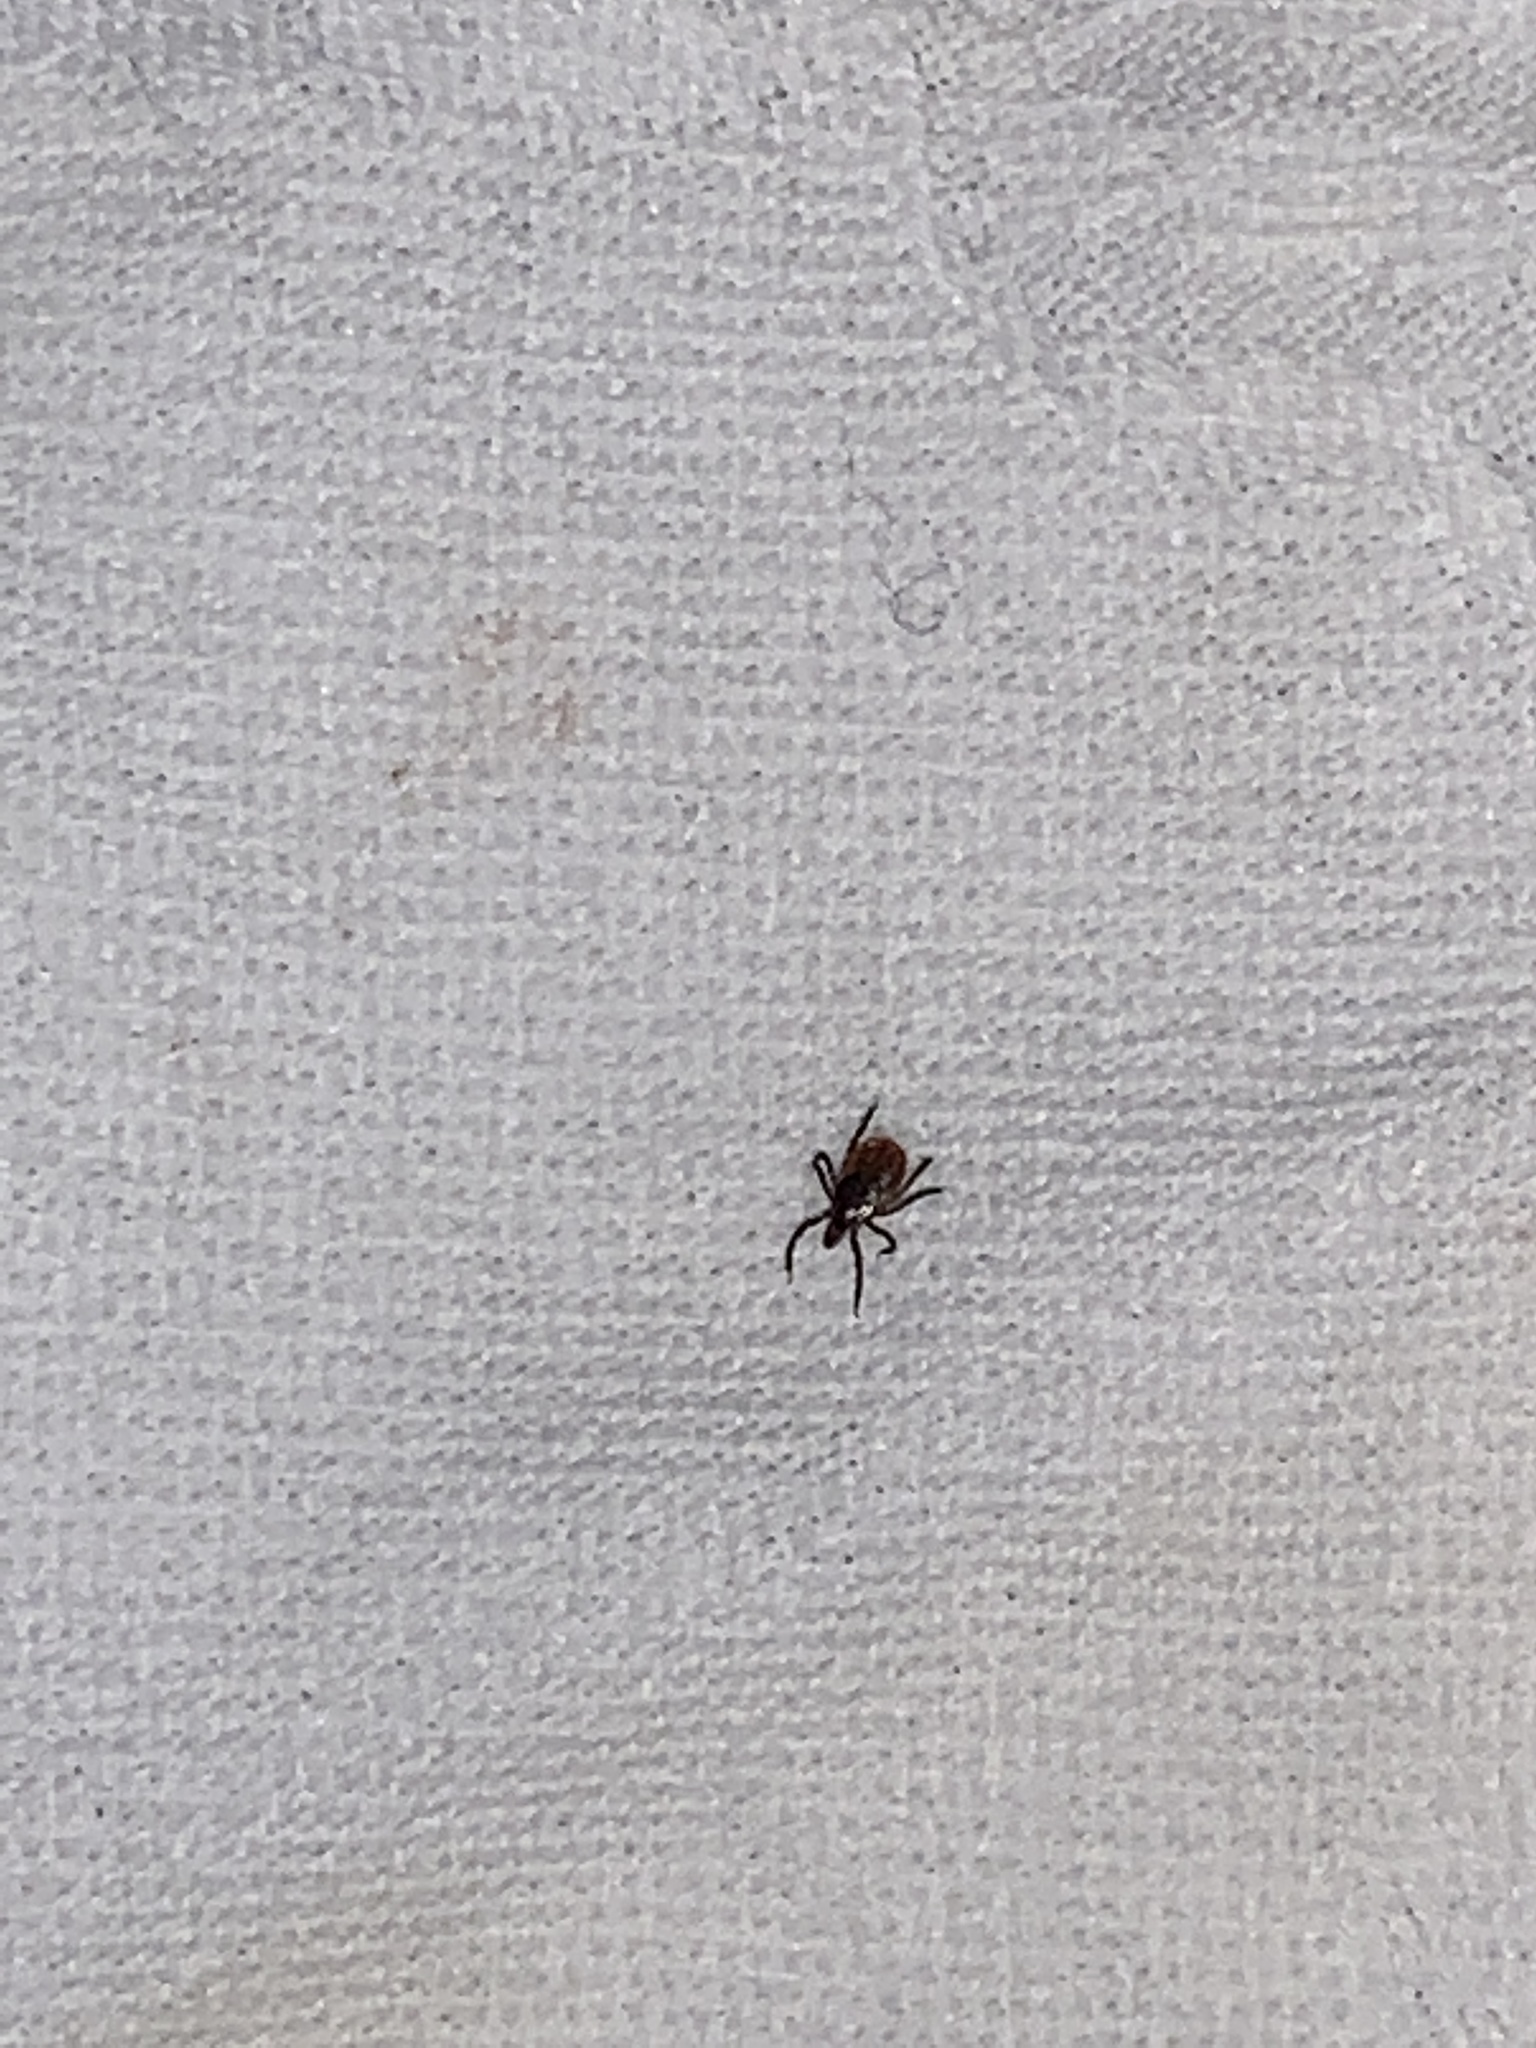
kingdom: Animalia
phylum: Arthropoda
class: Arachnida
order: Ixodida
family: Ixodidae
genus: Ixodes
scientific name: Ixodes scapularis
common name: Black legged tick
